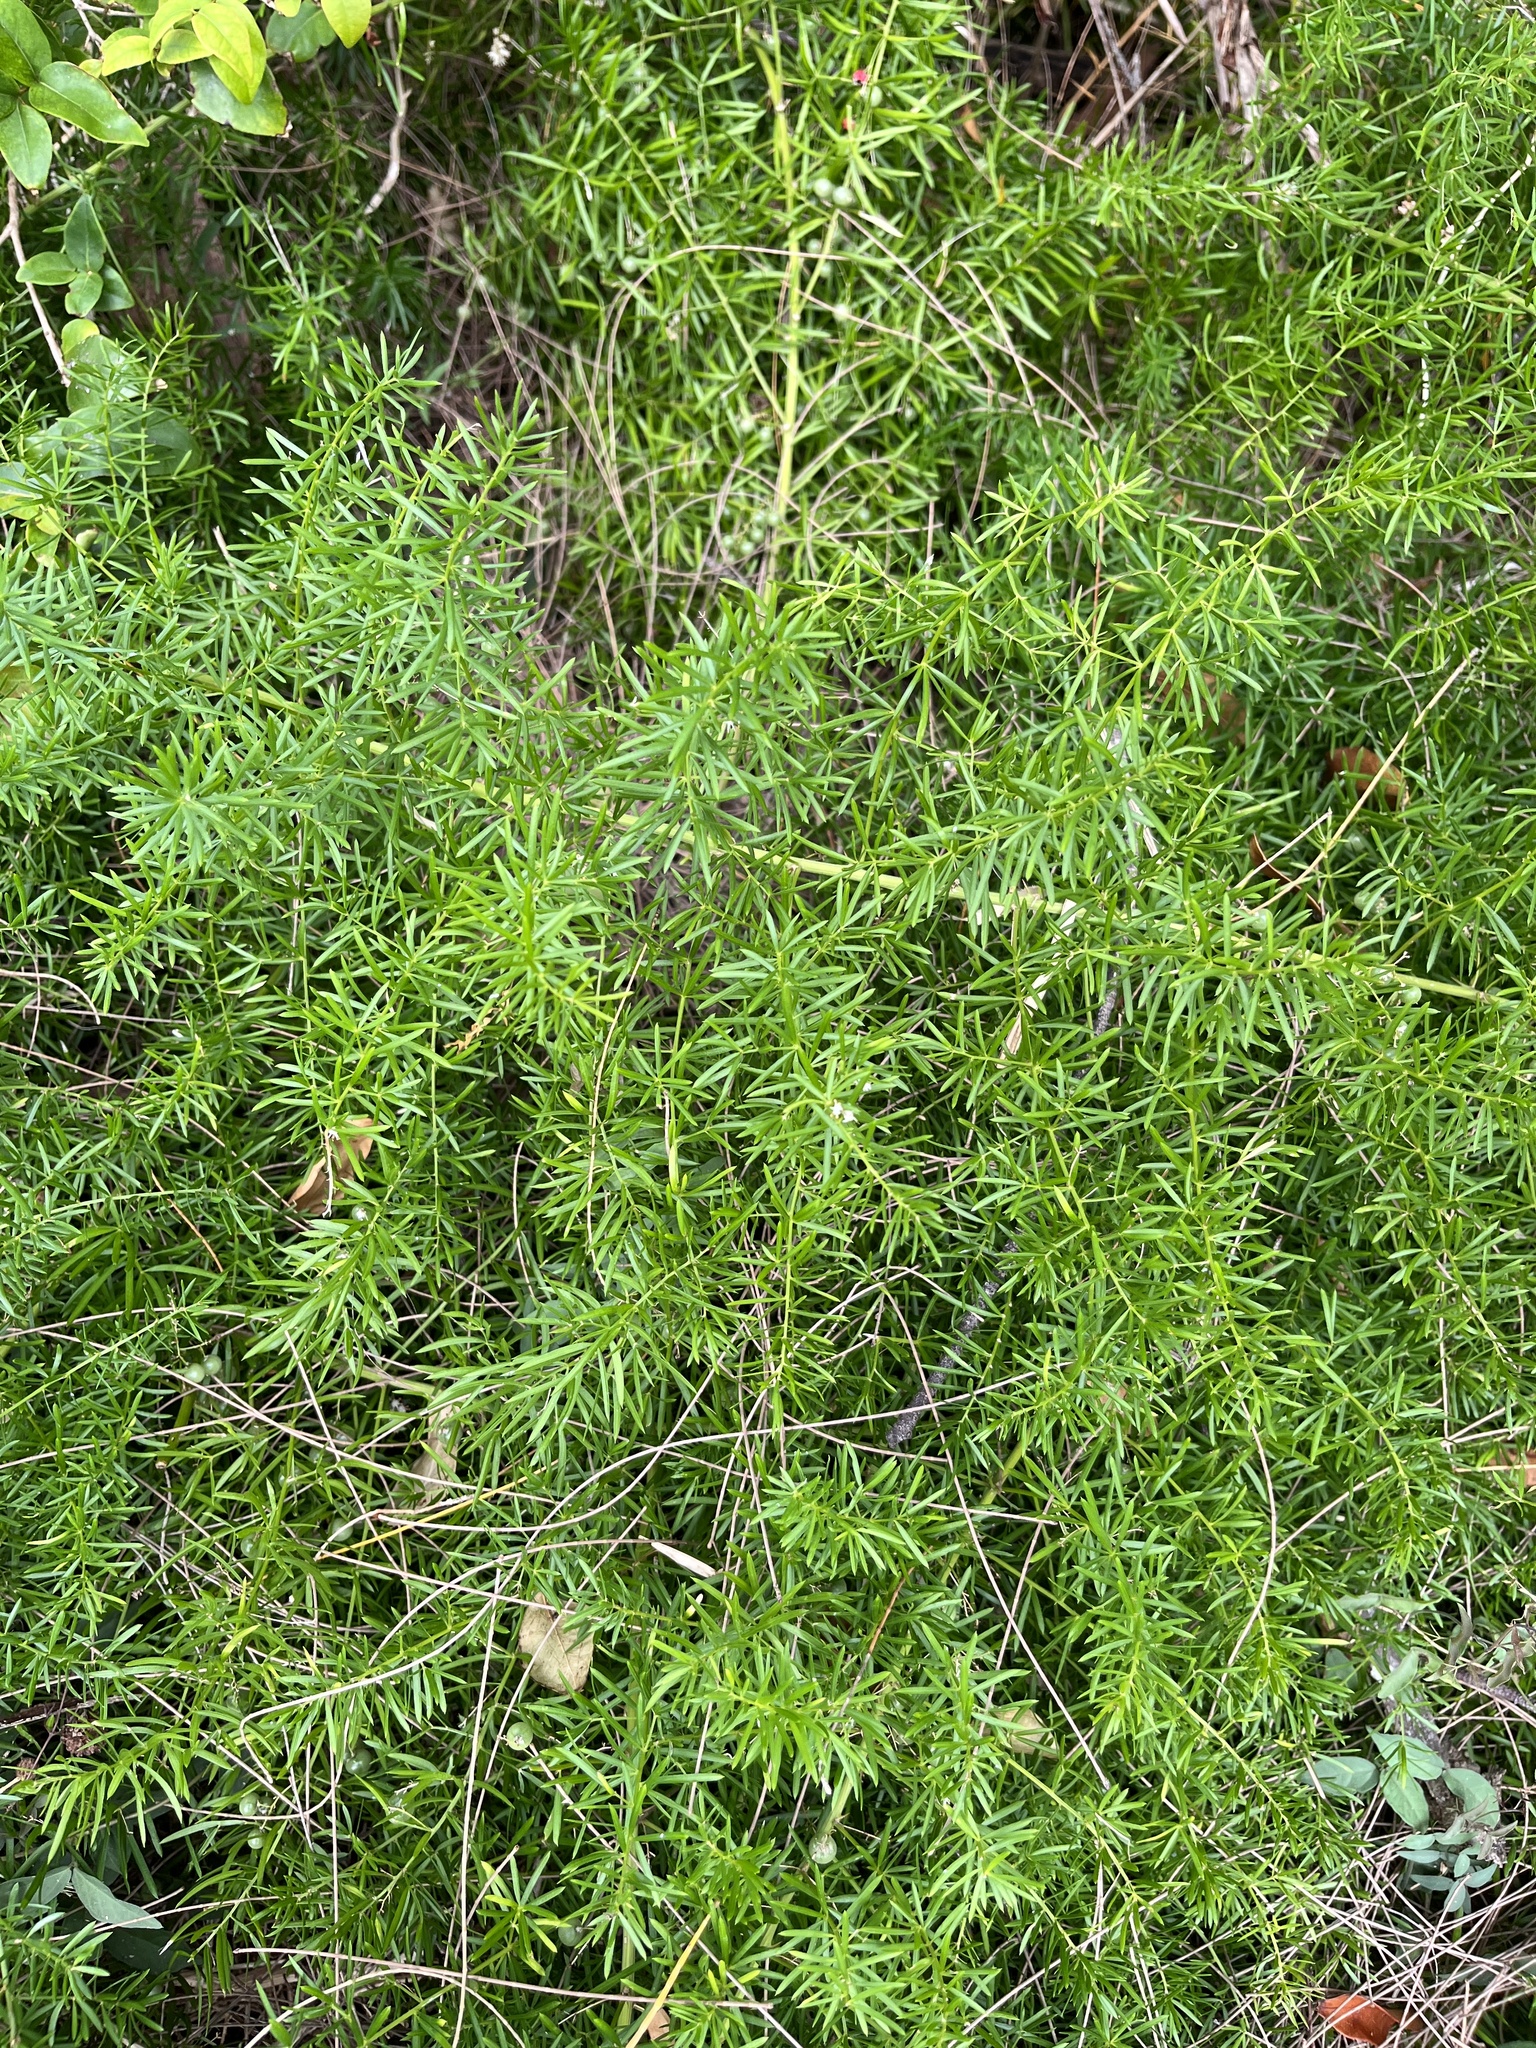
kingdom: Plantae
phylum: Tracheophyta
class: Liliopsida
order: Asparagales
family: Asparagaceae
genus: Asparagus
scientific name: Asparagus aethiopicus
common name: Sprenger's asparagus fern
